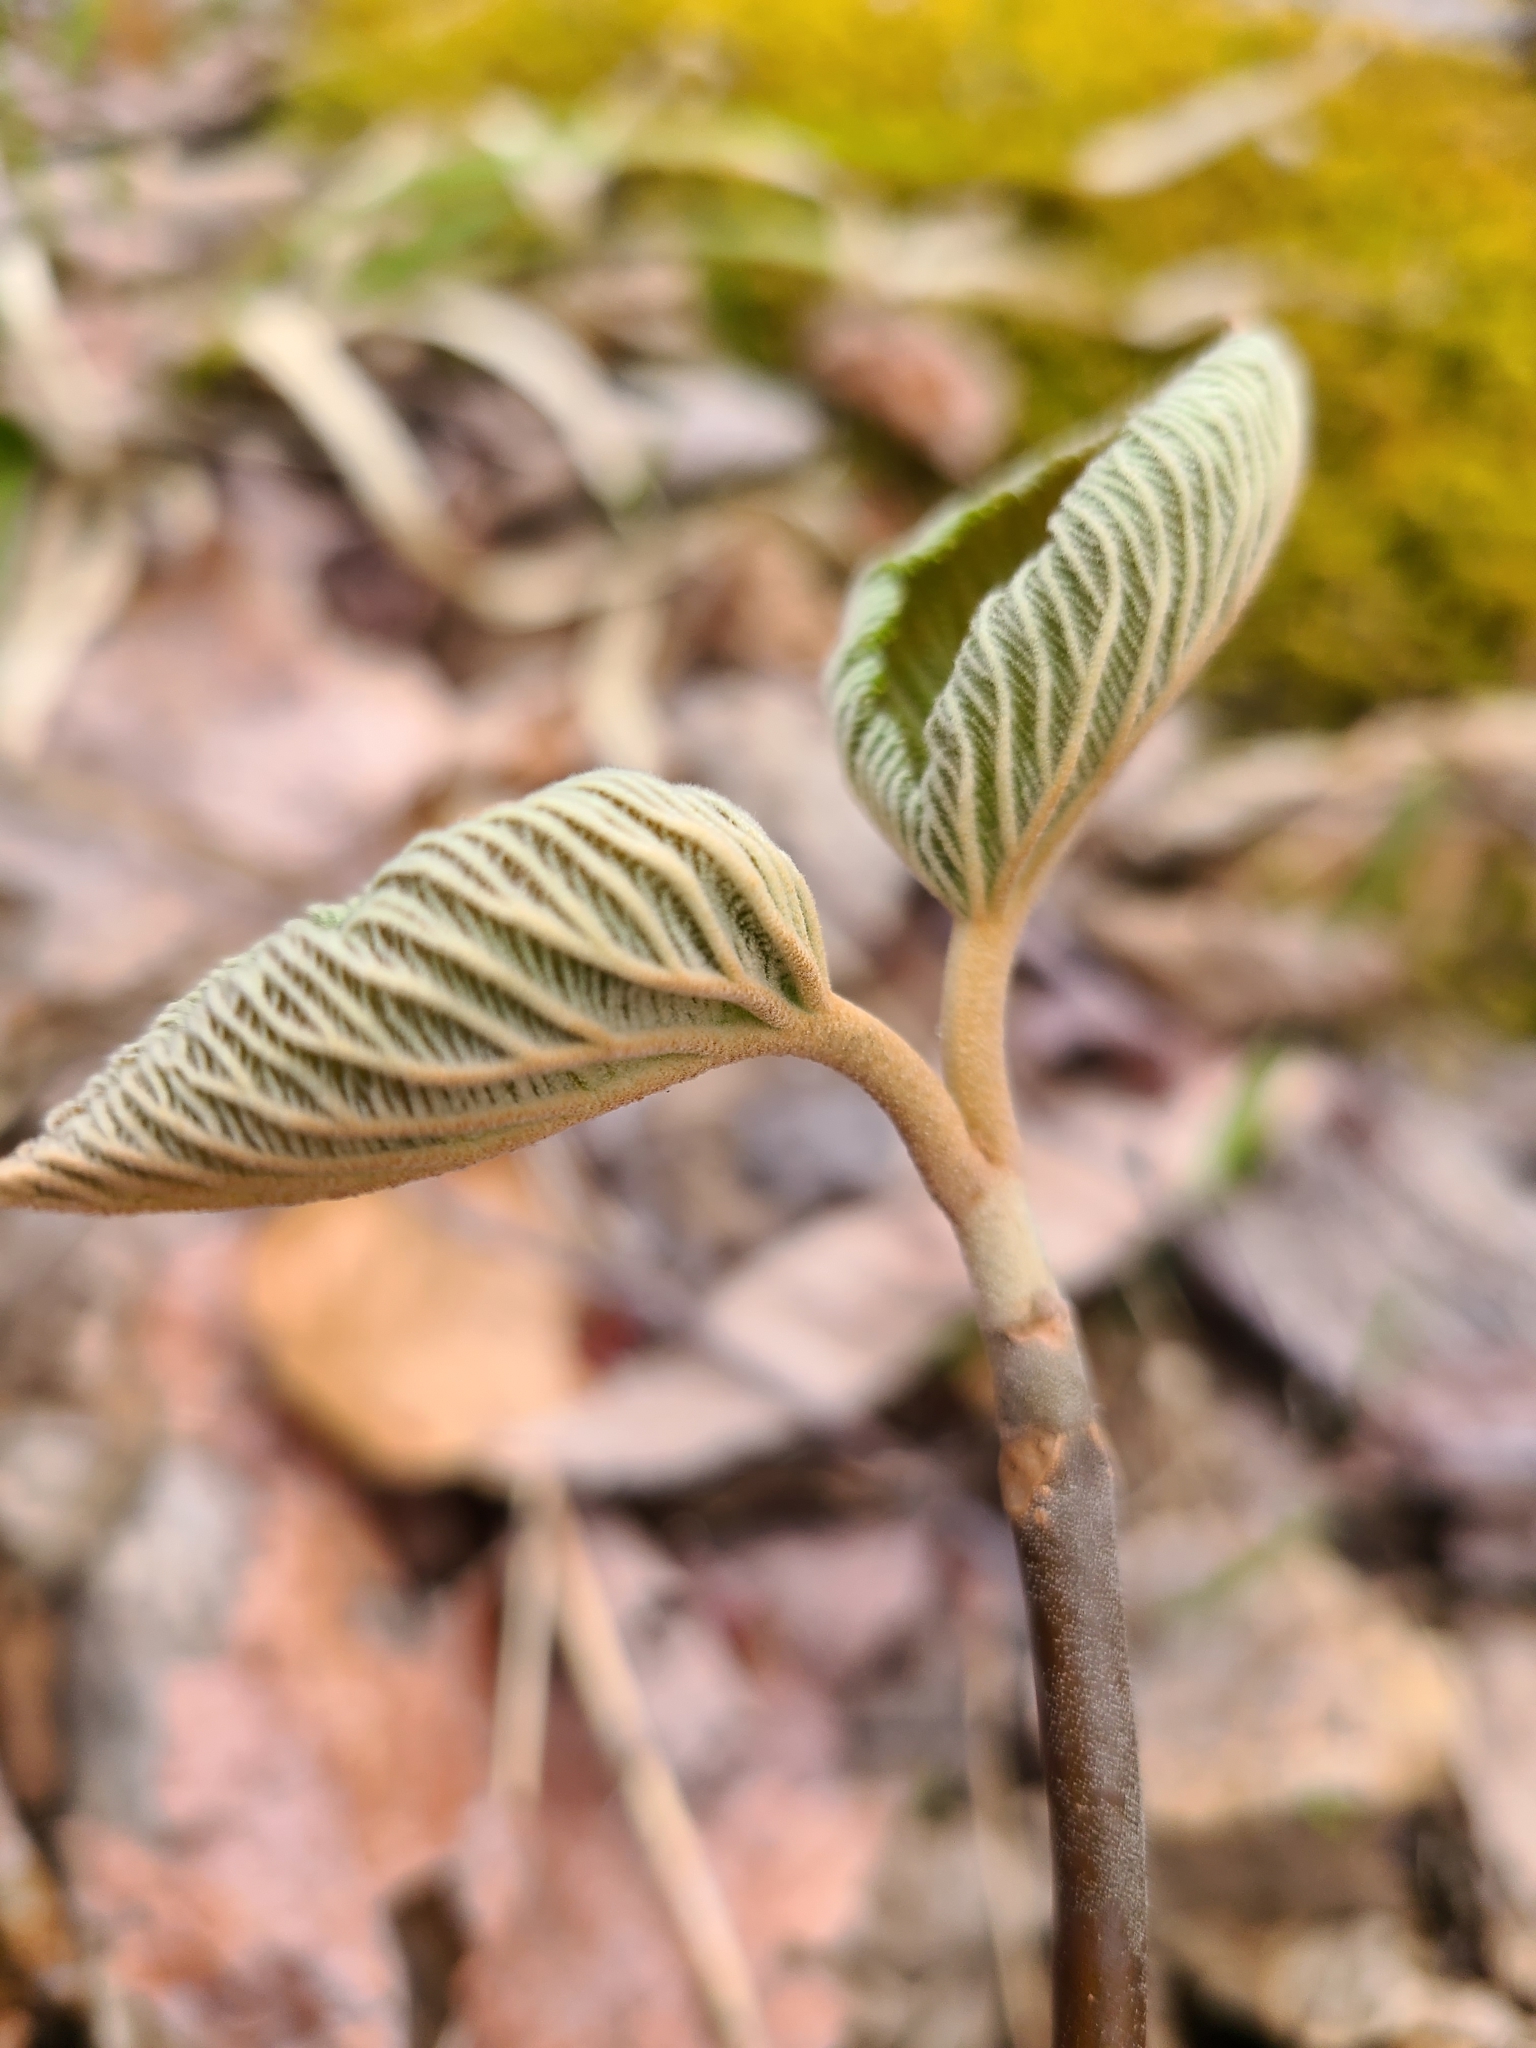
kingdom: Plantae
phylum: Tracheophyta
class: Magnoliopsida
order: Dipsacales
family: Viburnaceae
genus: Viburnum
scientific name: Viburnum lantanoides
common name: Hobblebush
